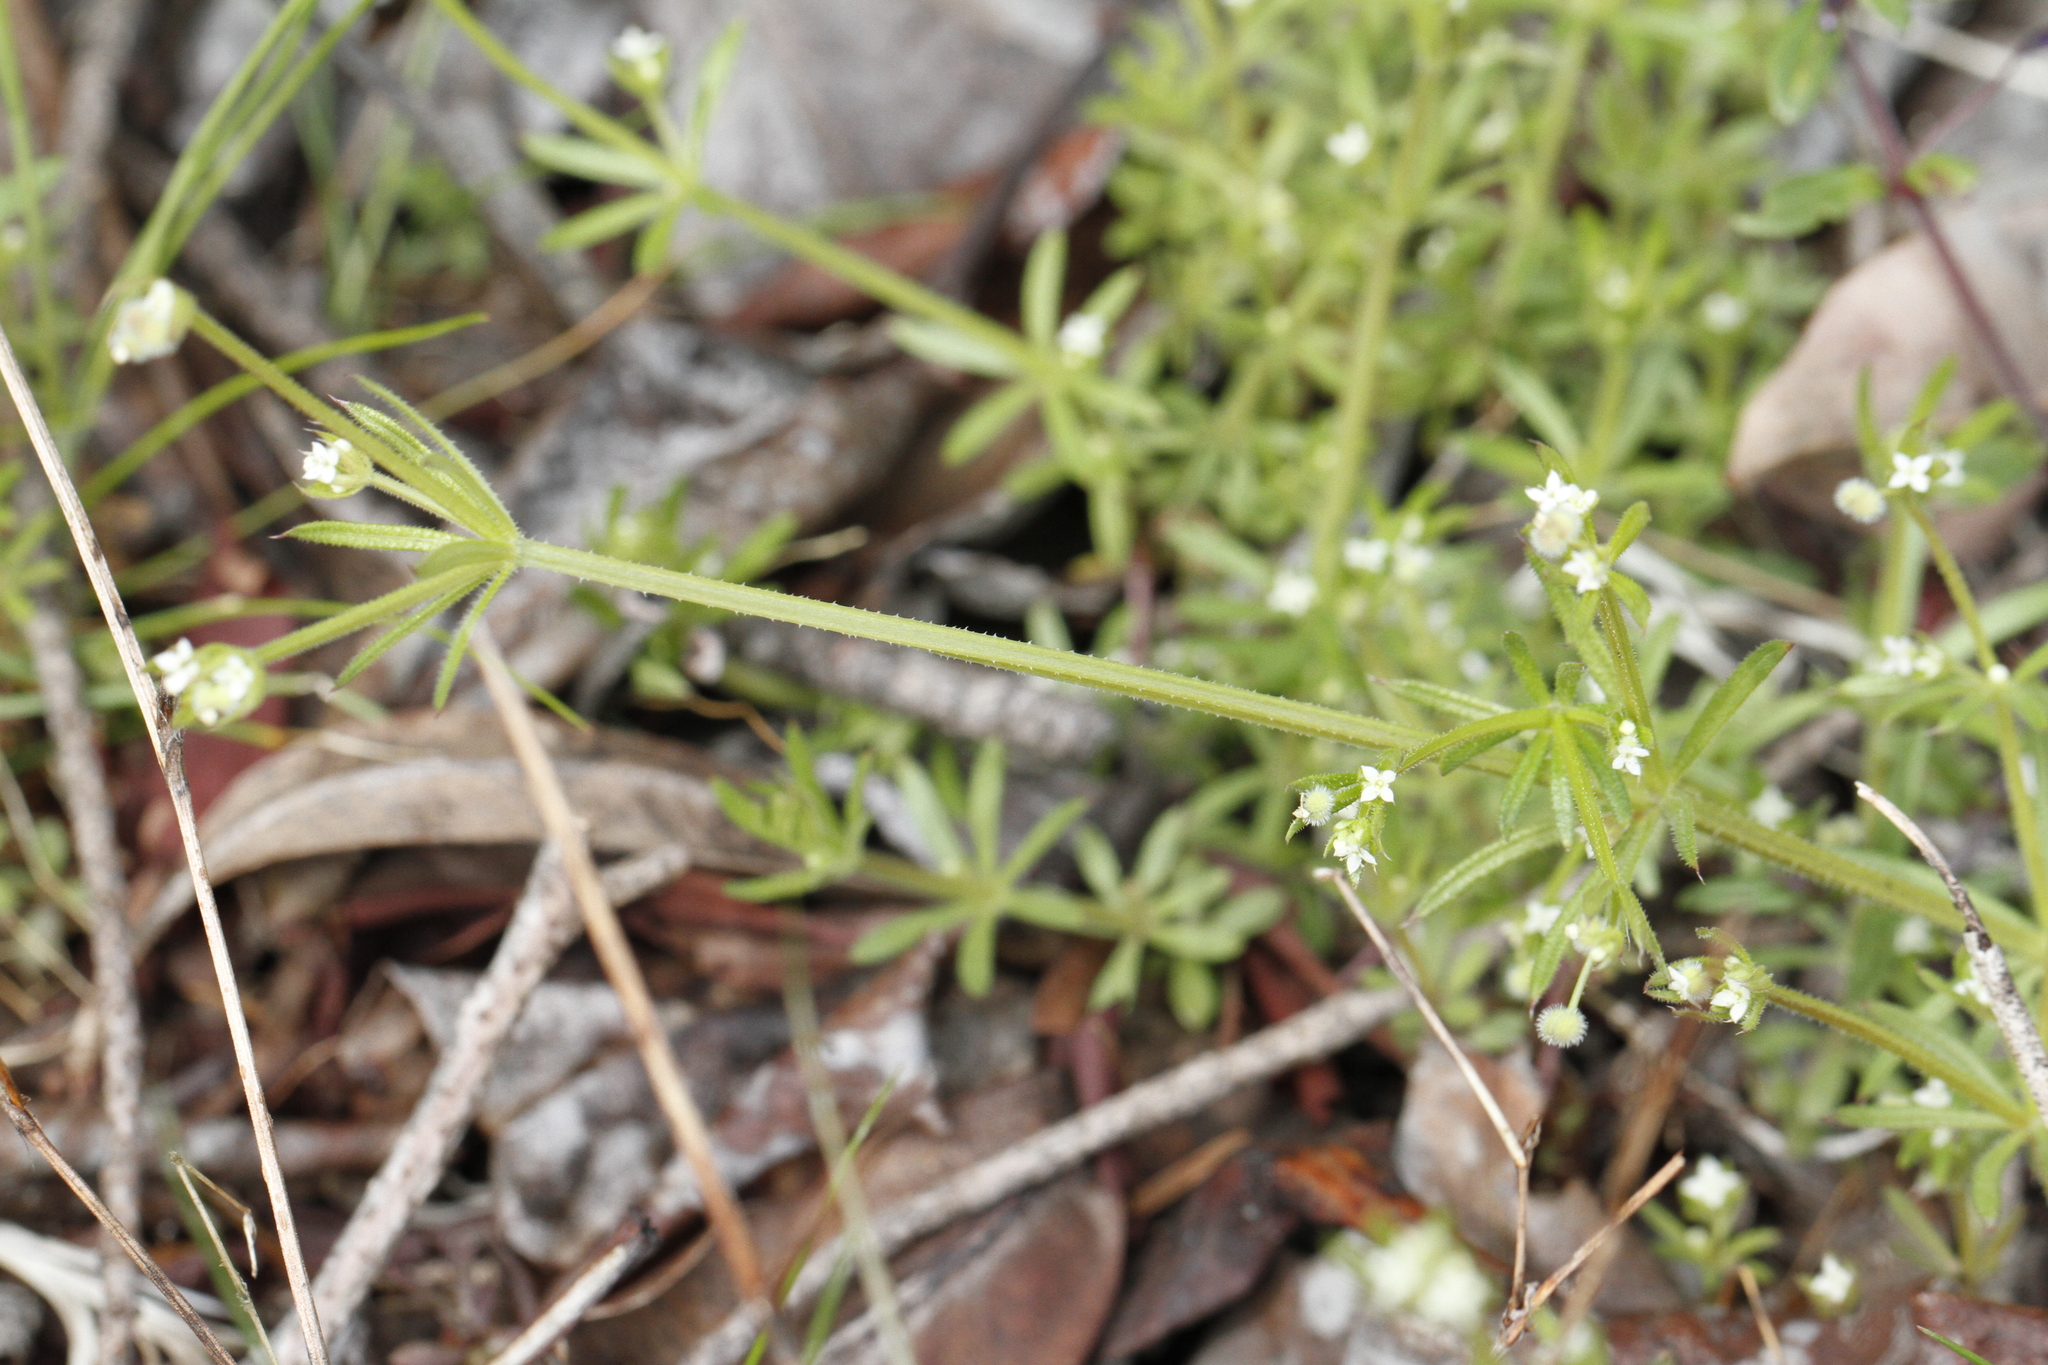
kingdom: Plantae
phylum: Tracheophyta
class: Magnoliopsida
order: Gentianales
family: Rubiaceae
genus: Galium
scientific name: Galium aparine
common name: Cleavers
